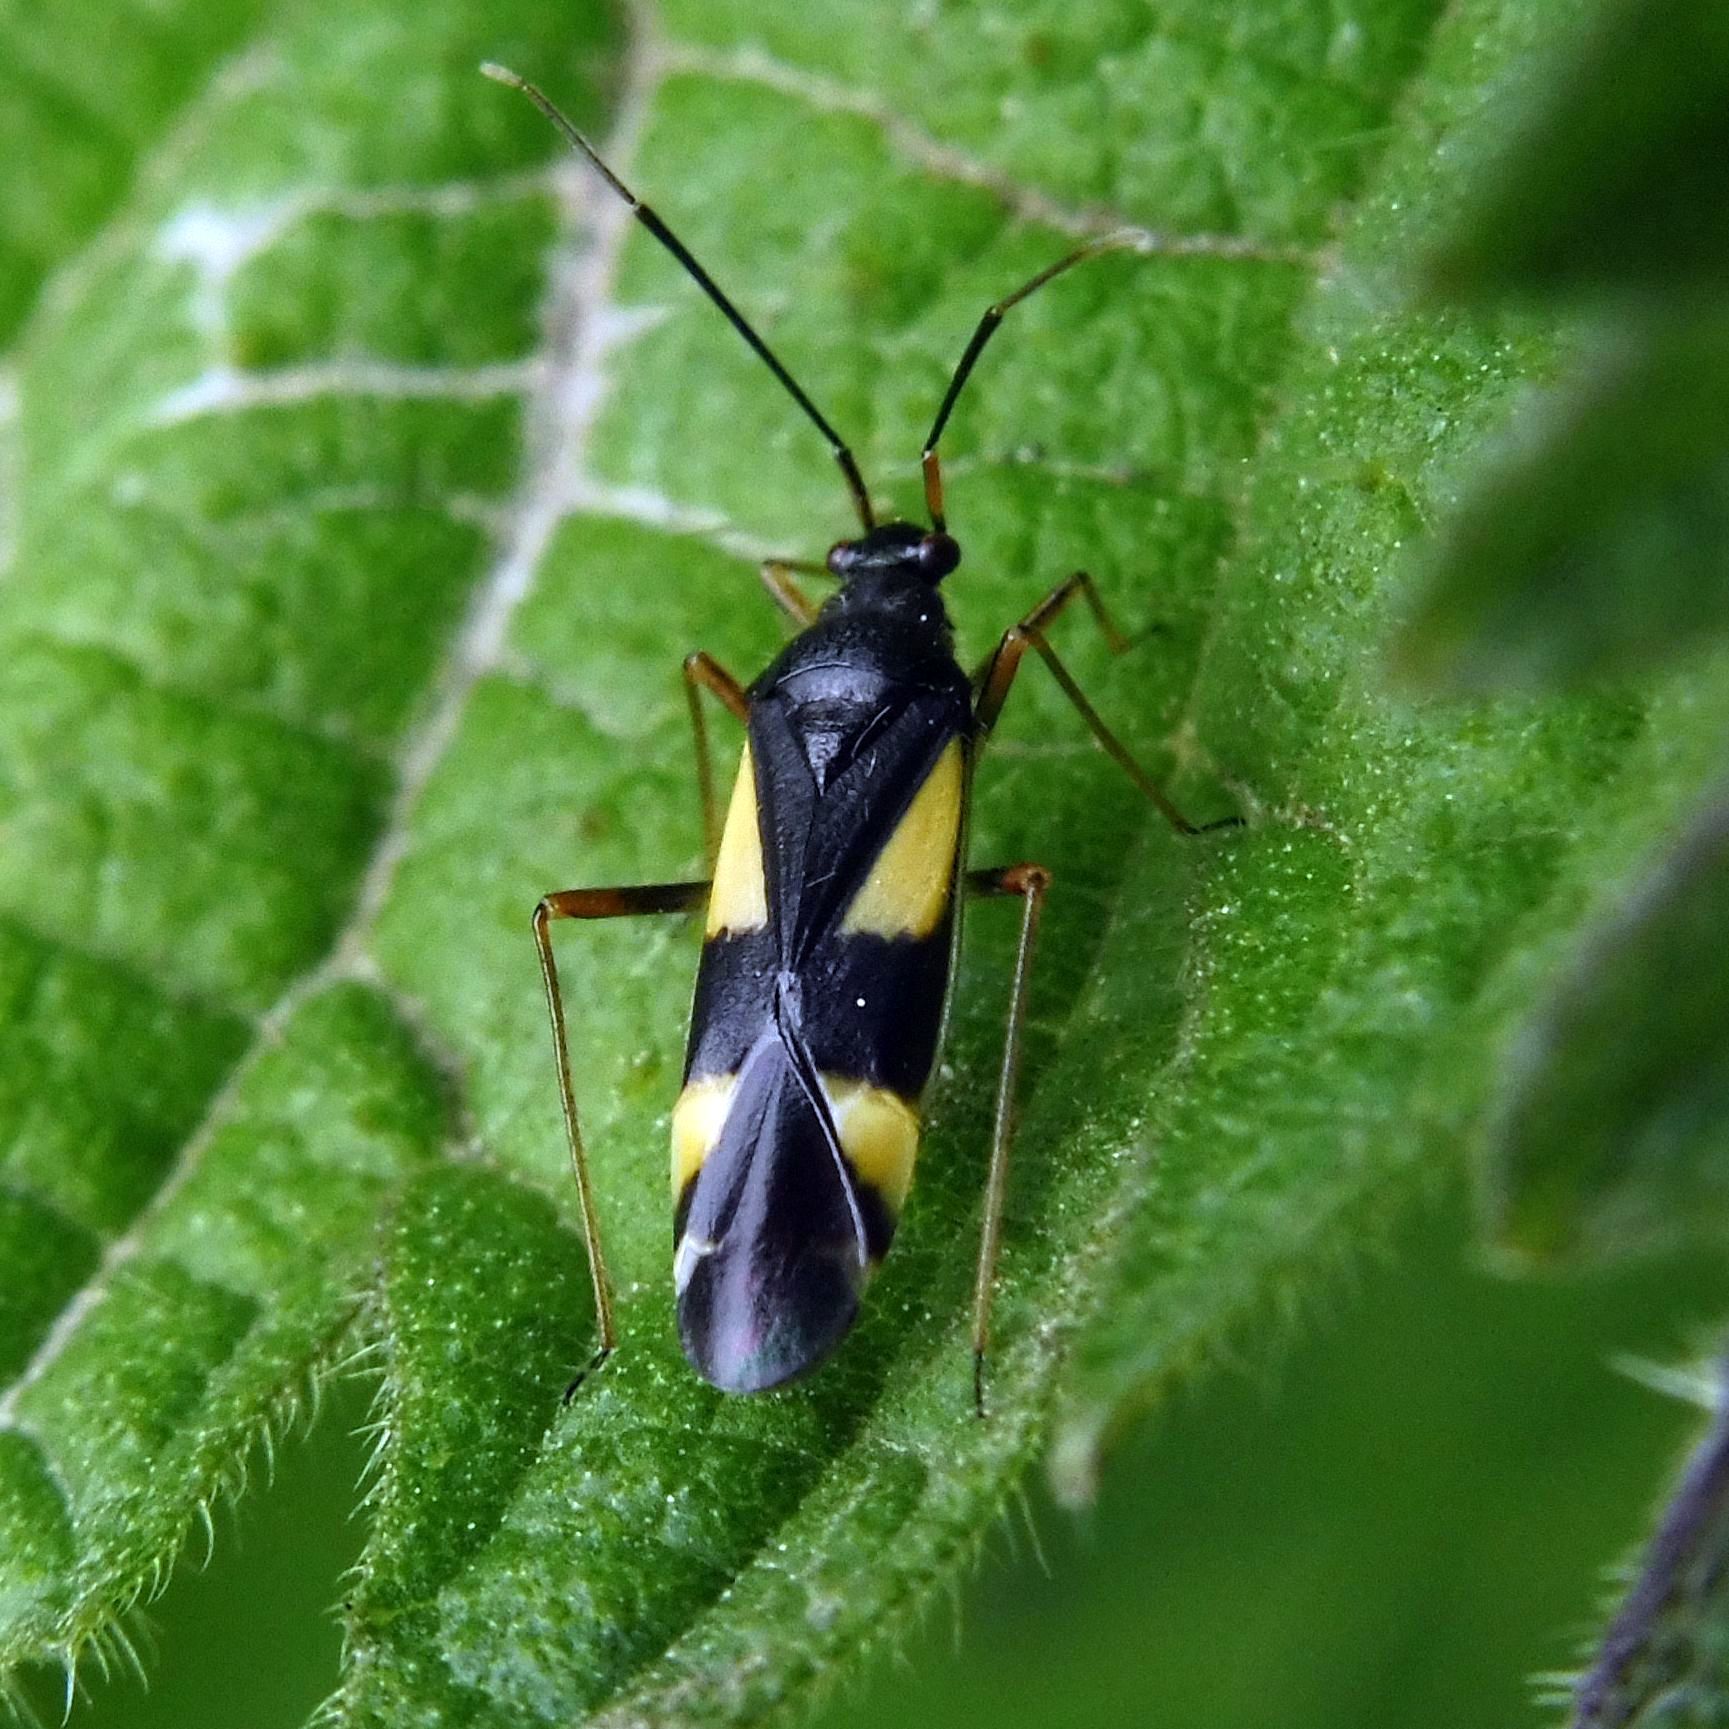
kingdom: Animalia
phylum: Arthropoda
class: Insecta
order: Hemiptera
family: Miridae
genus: Dryophilocoris
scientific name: Dryophilocoris flavoquadrimaculatus
